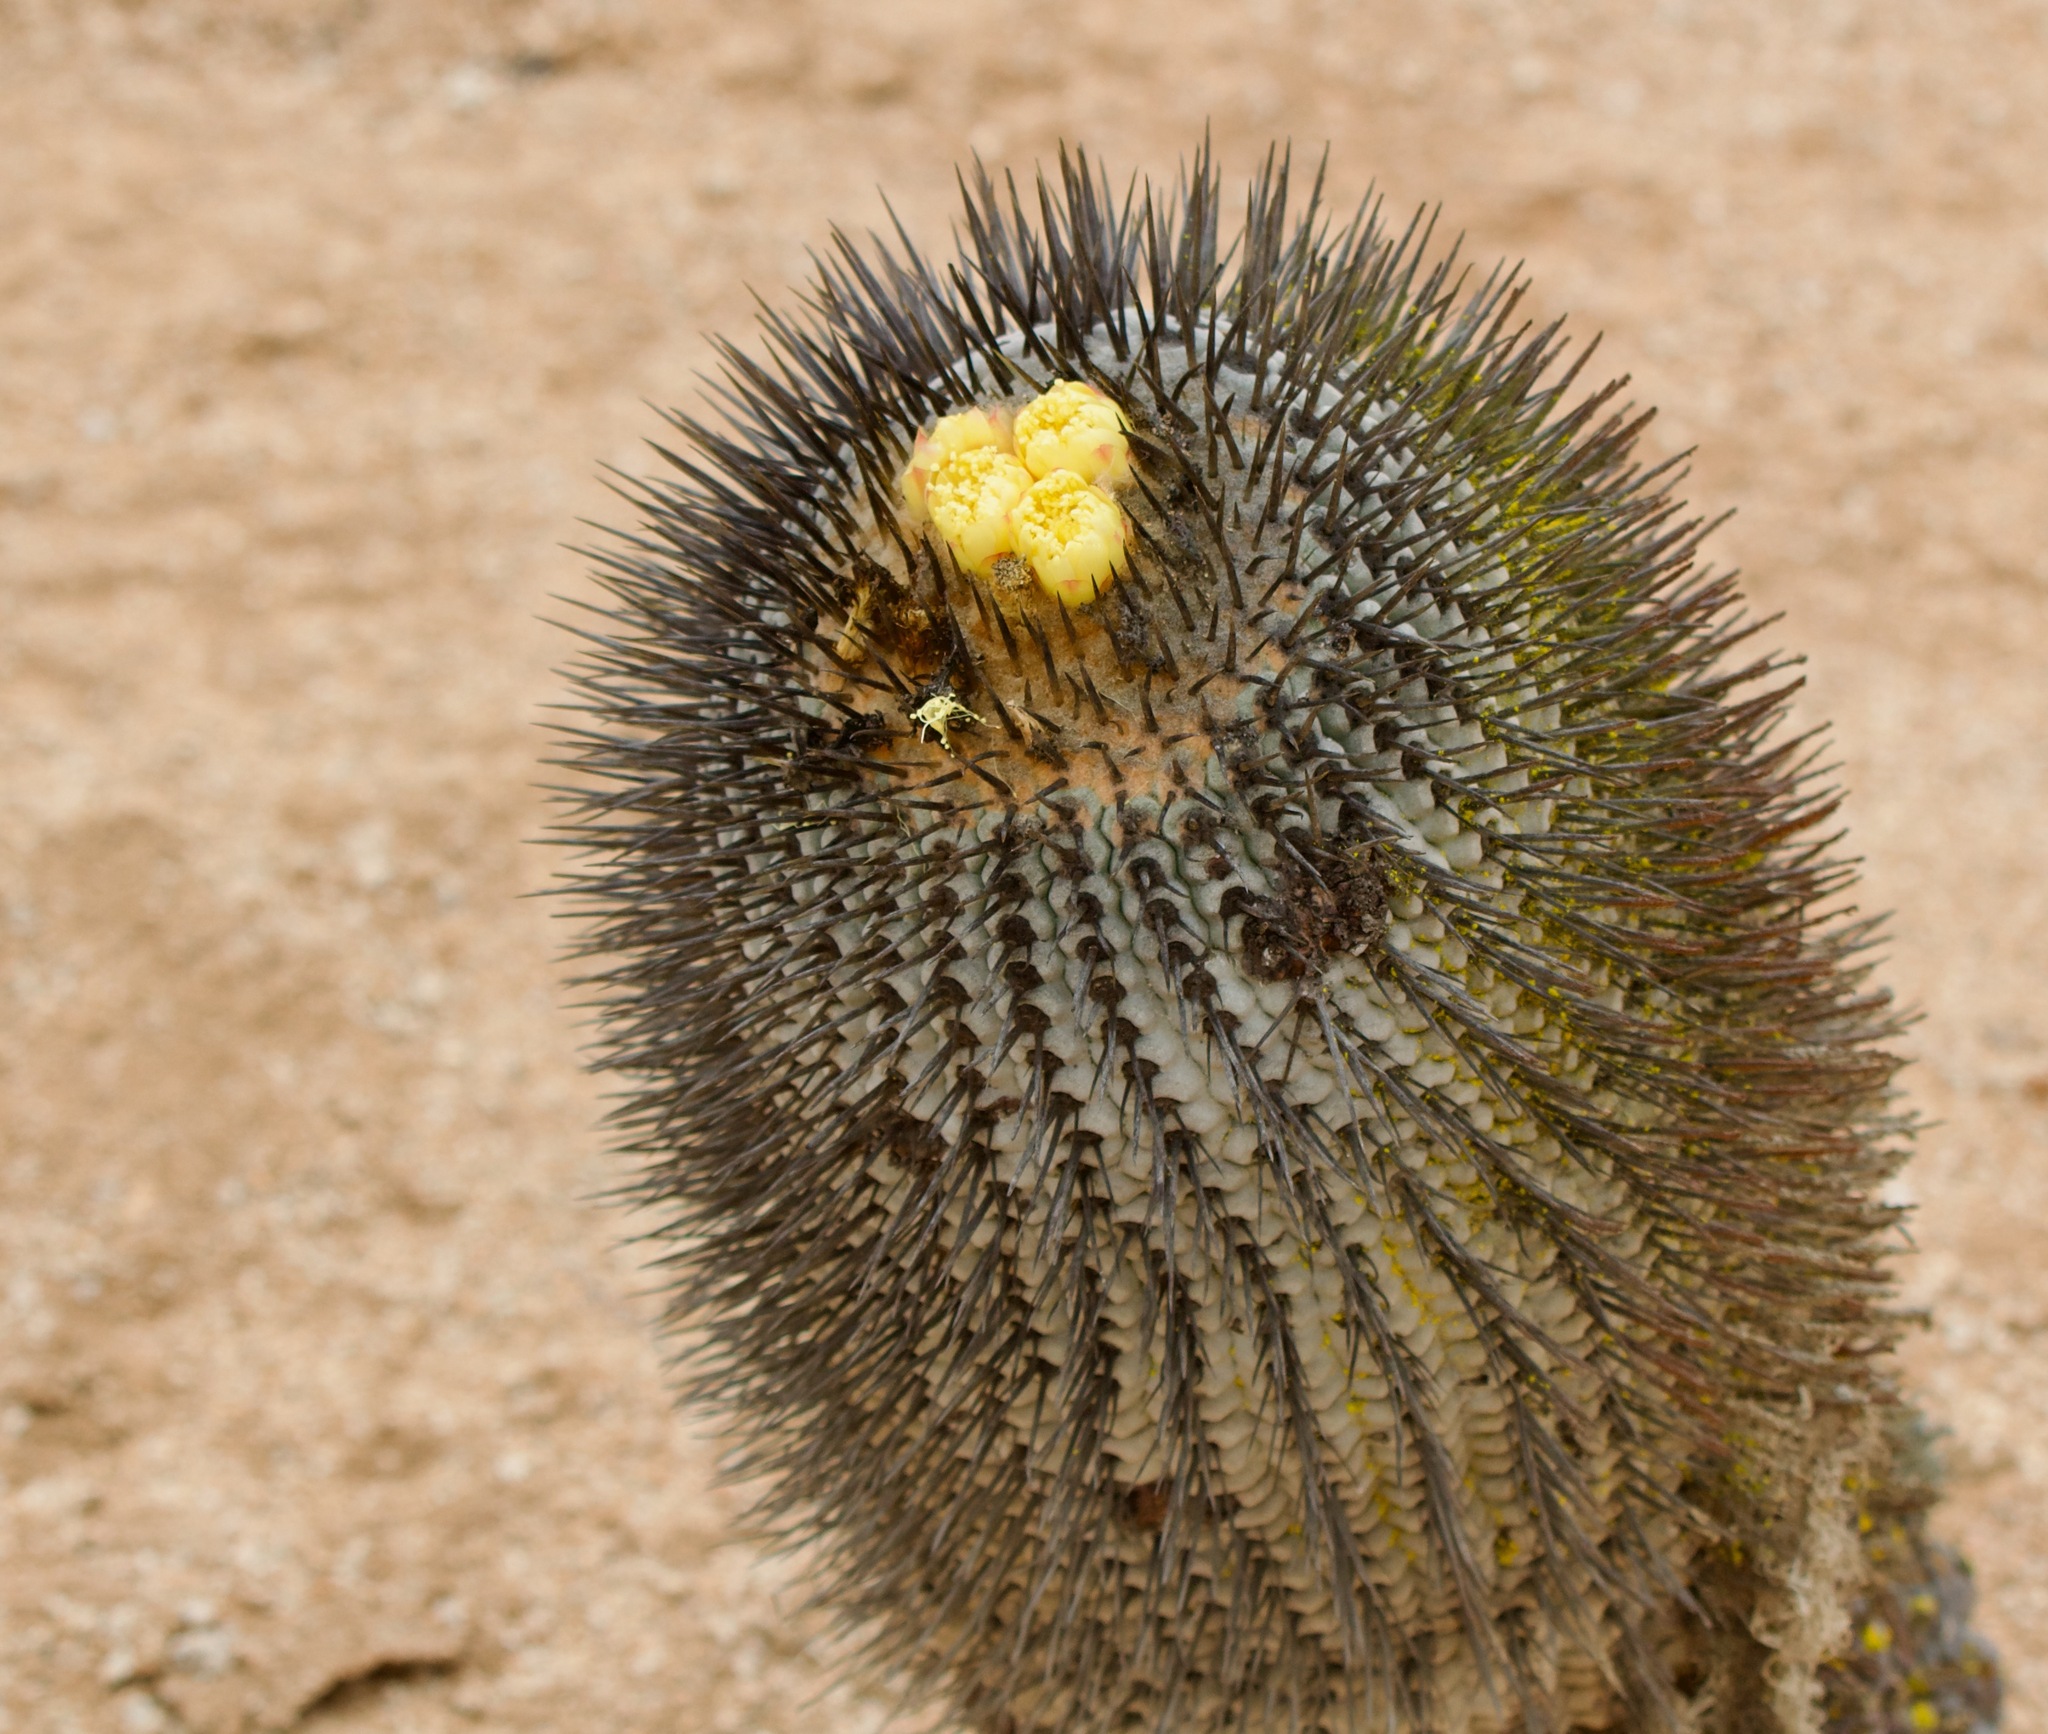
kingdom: Plantae
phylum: Tracheophyta
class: Magnoliopsida
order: Caryophyllales
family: Cactaceae
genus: Copiapoa
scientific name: Copiapoa cinerea
